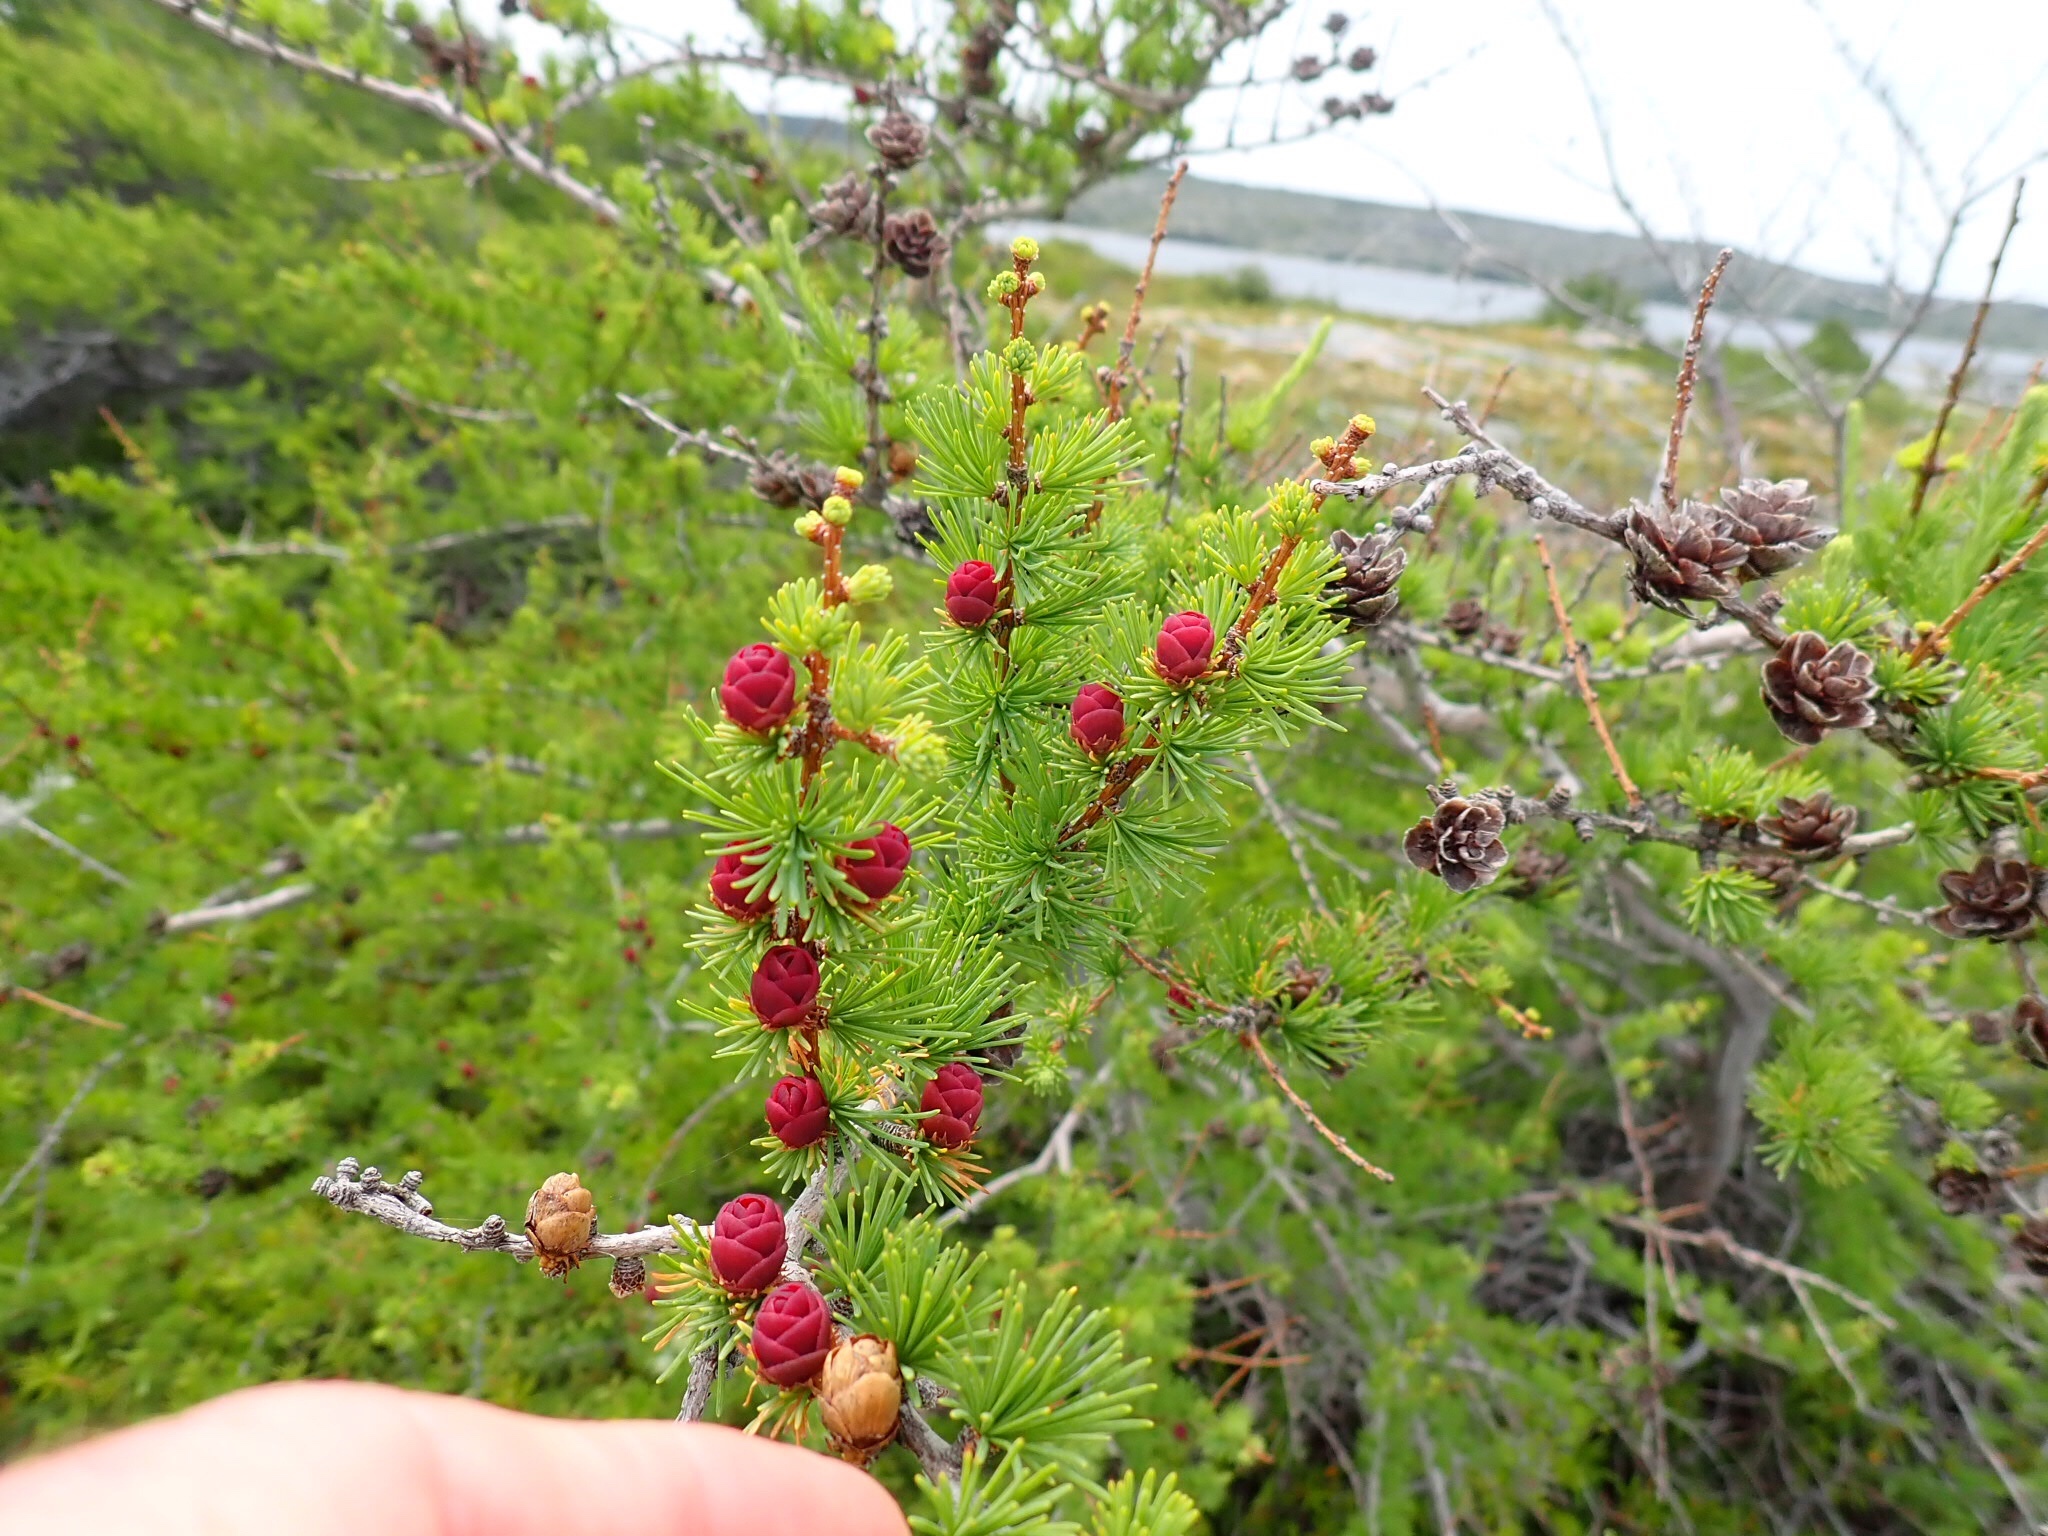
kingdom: Plantae
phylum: Tracheophyta
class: Pinopsida
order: Pinales
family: Pinaceae
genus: Larix
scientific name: Larix laricina
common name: American larch
